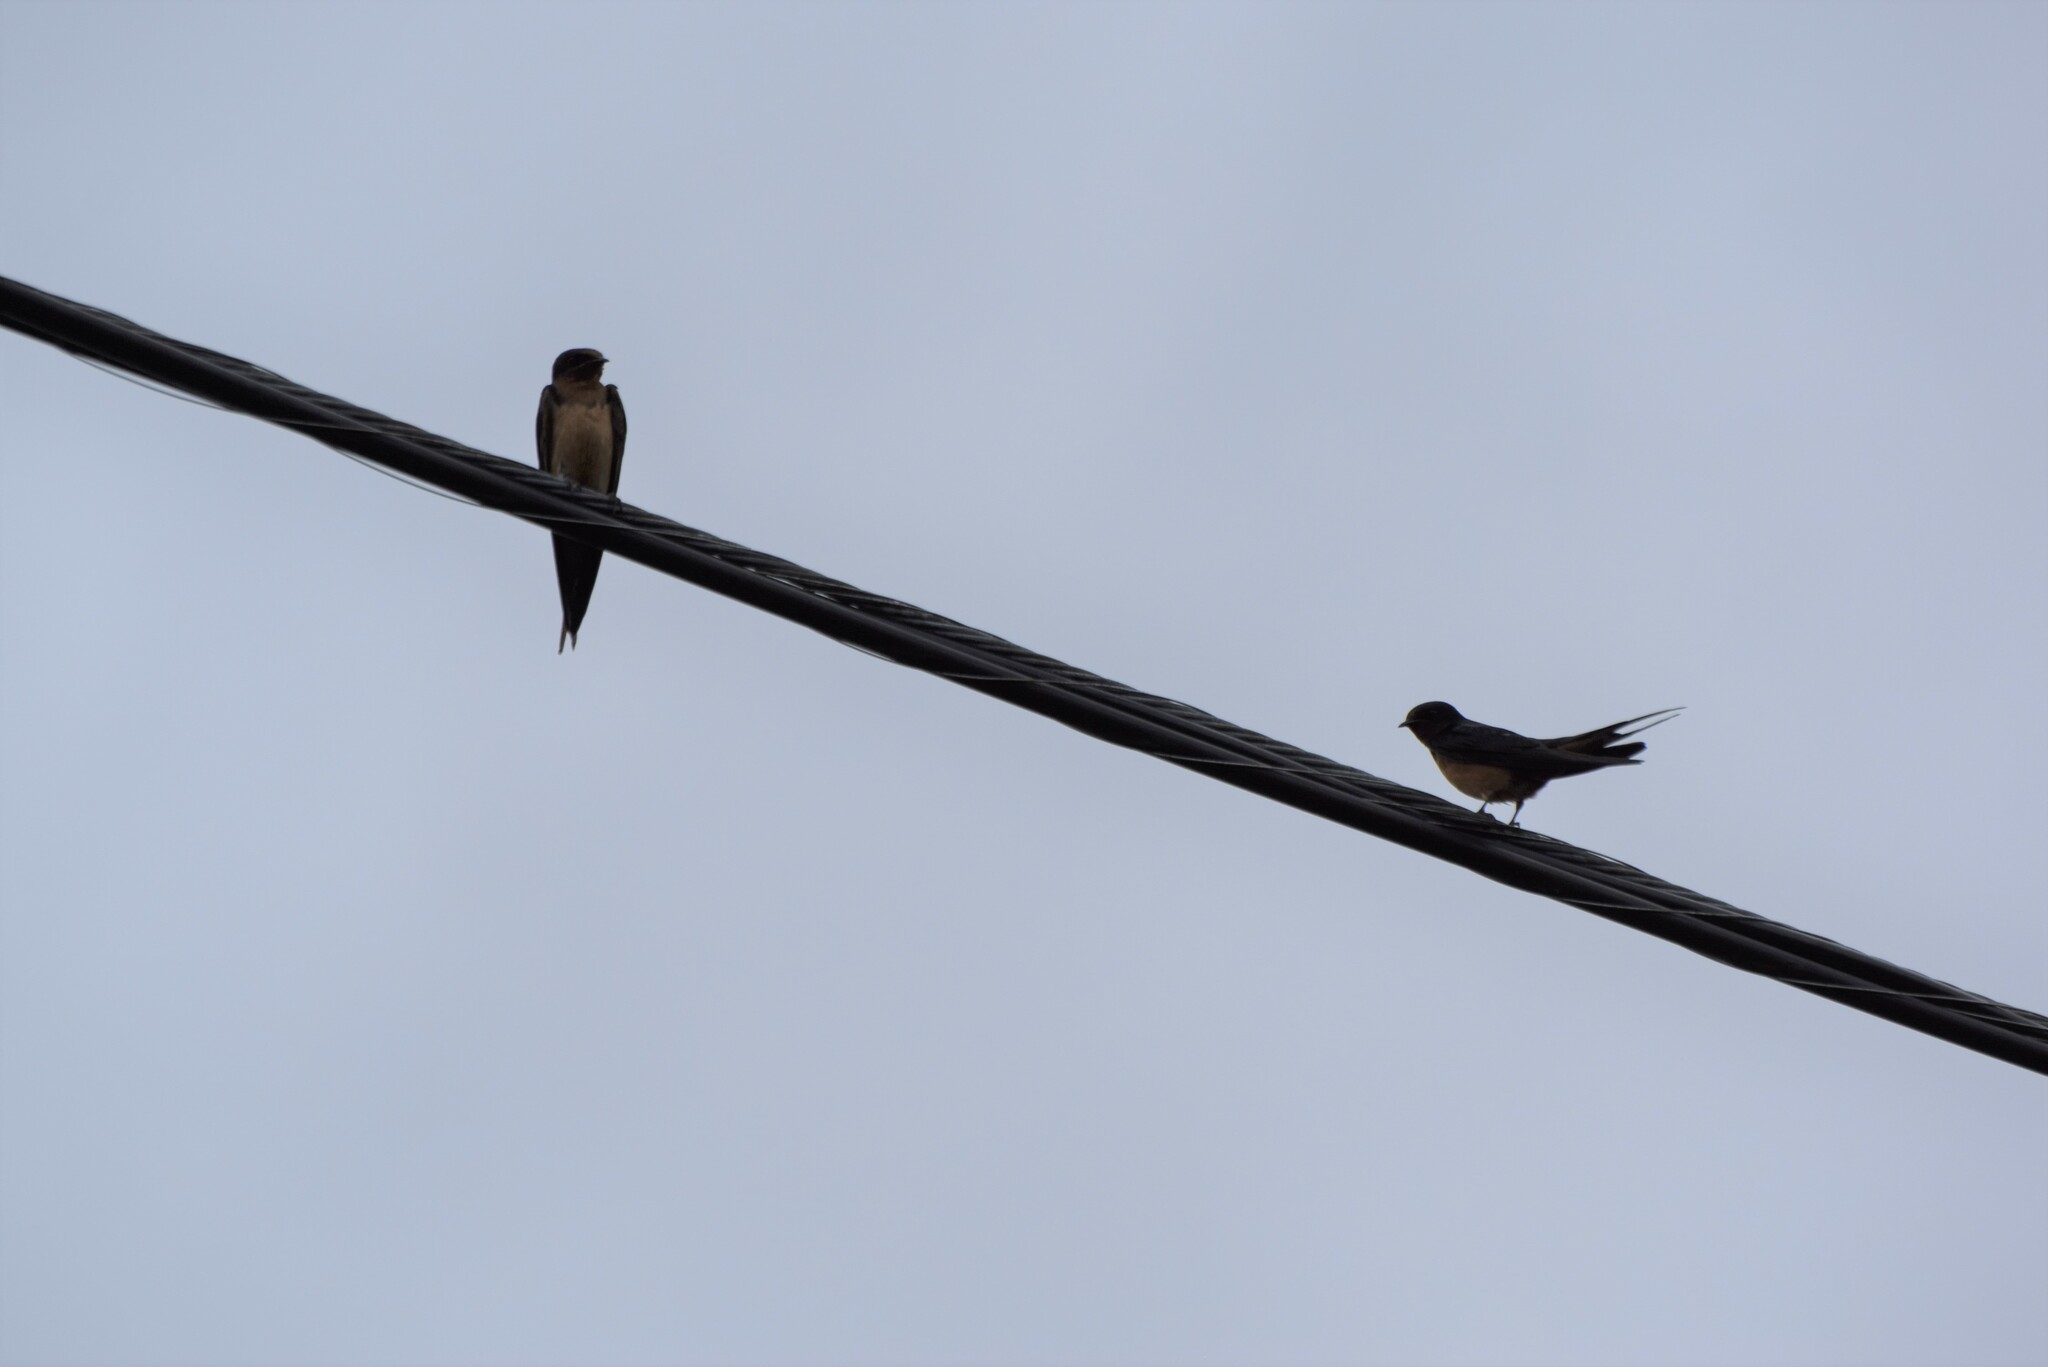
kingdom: Animalia
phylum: Chordata
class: Aves
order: Passeriformes
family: Hirundinidae
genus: Hirundo
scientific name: Hirundo rustica
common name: Barn swallow
